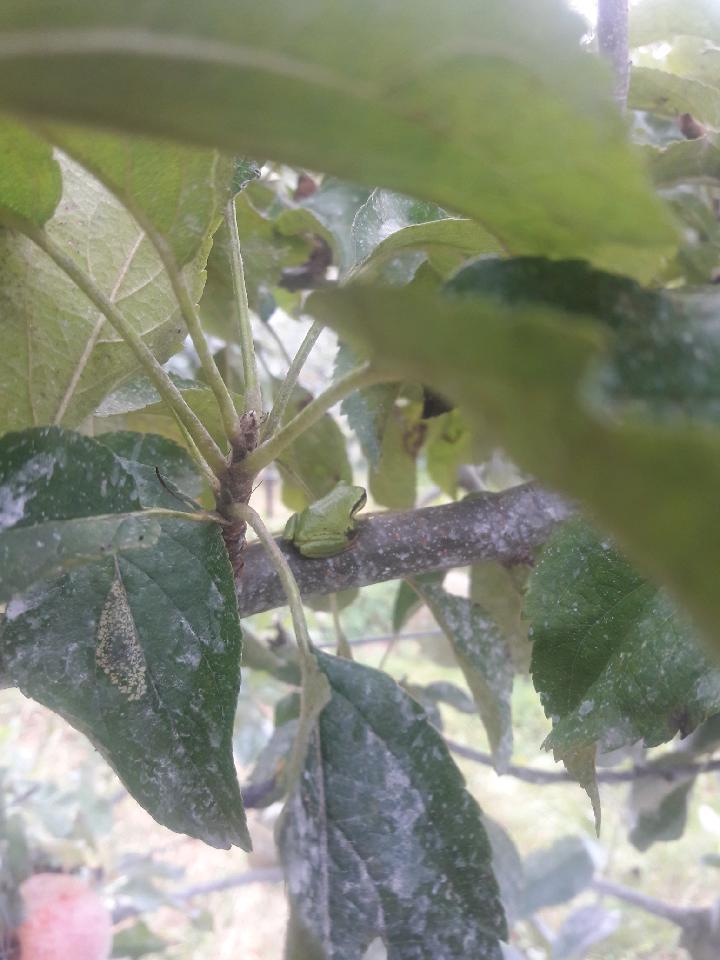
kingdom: Animalia
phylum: Chordata
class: Amphibia
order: Anura
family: Hylidae
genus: Pseudacris
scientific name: Pseudacris regilla
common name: Pacific chorus frog
